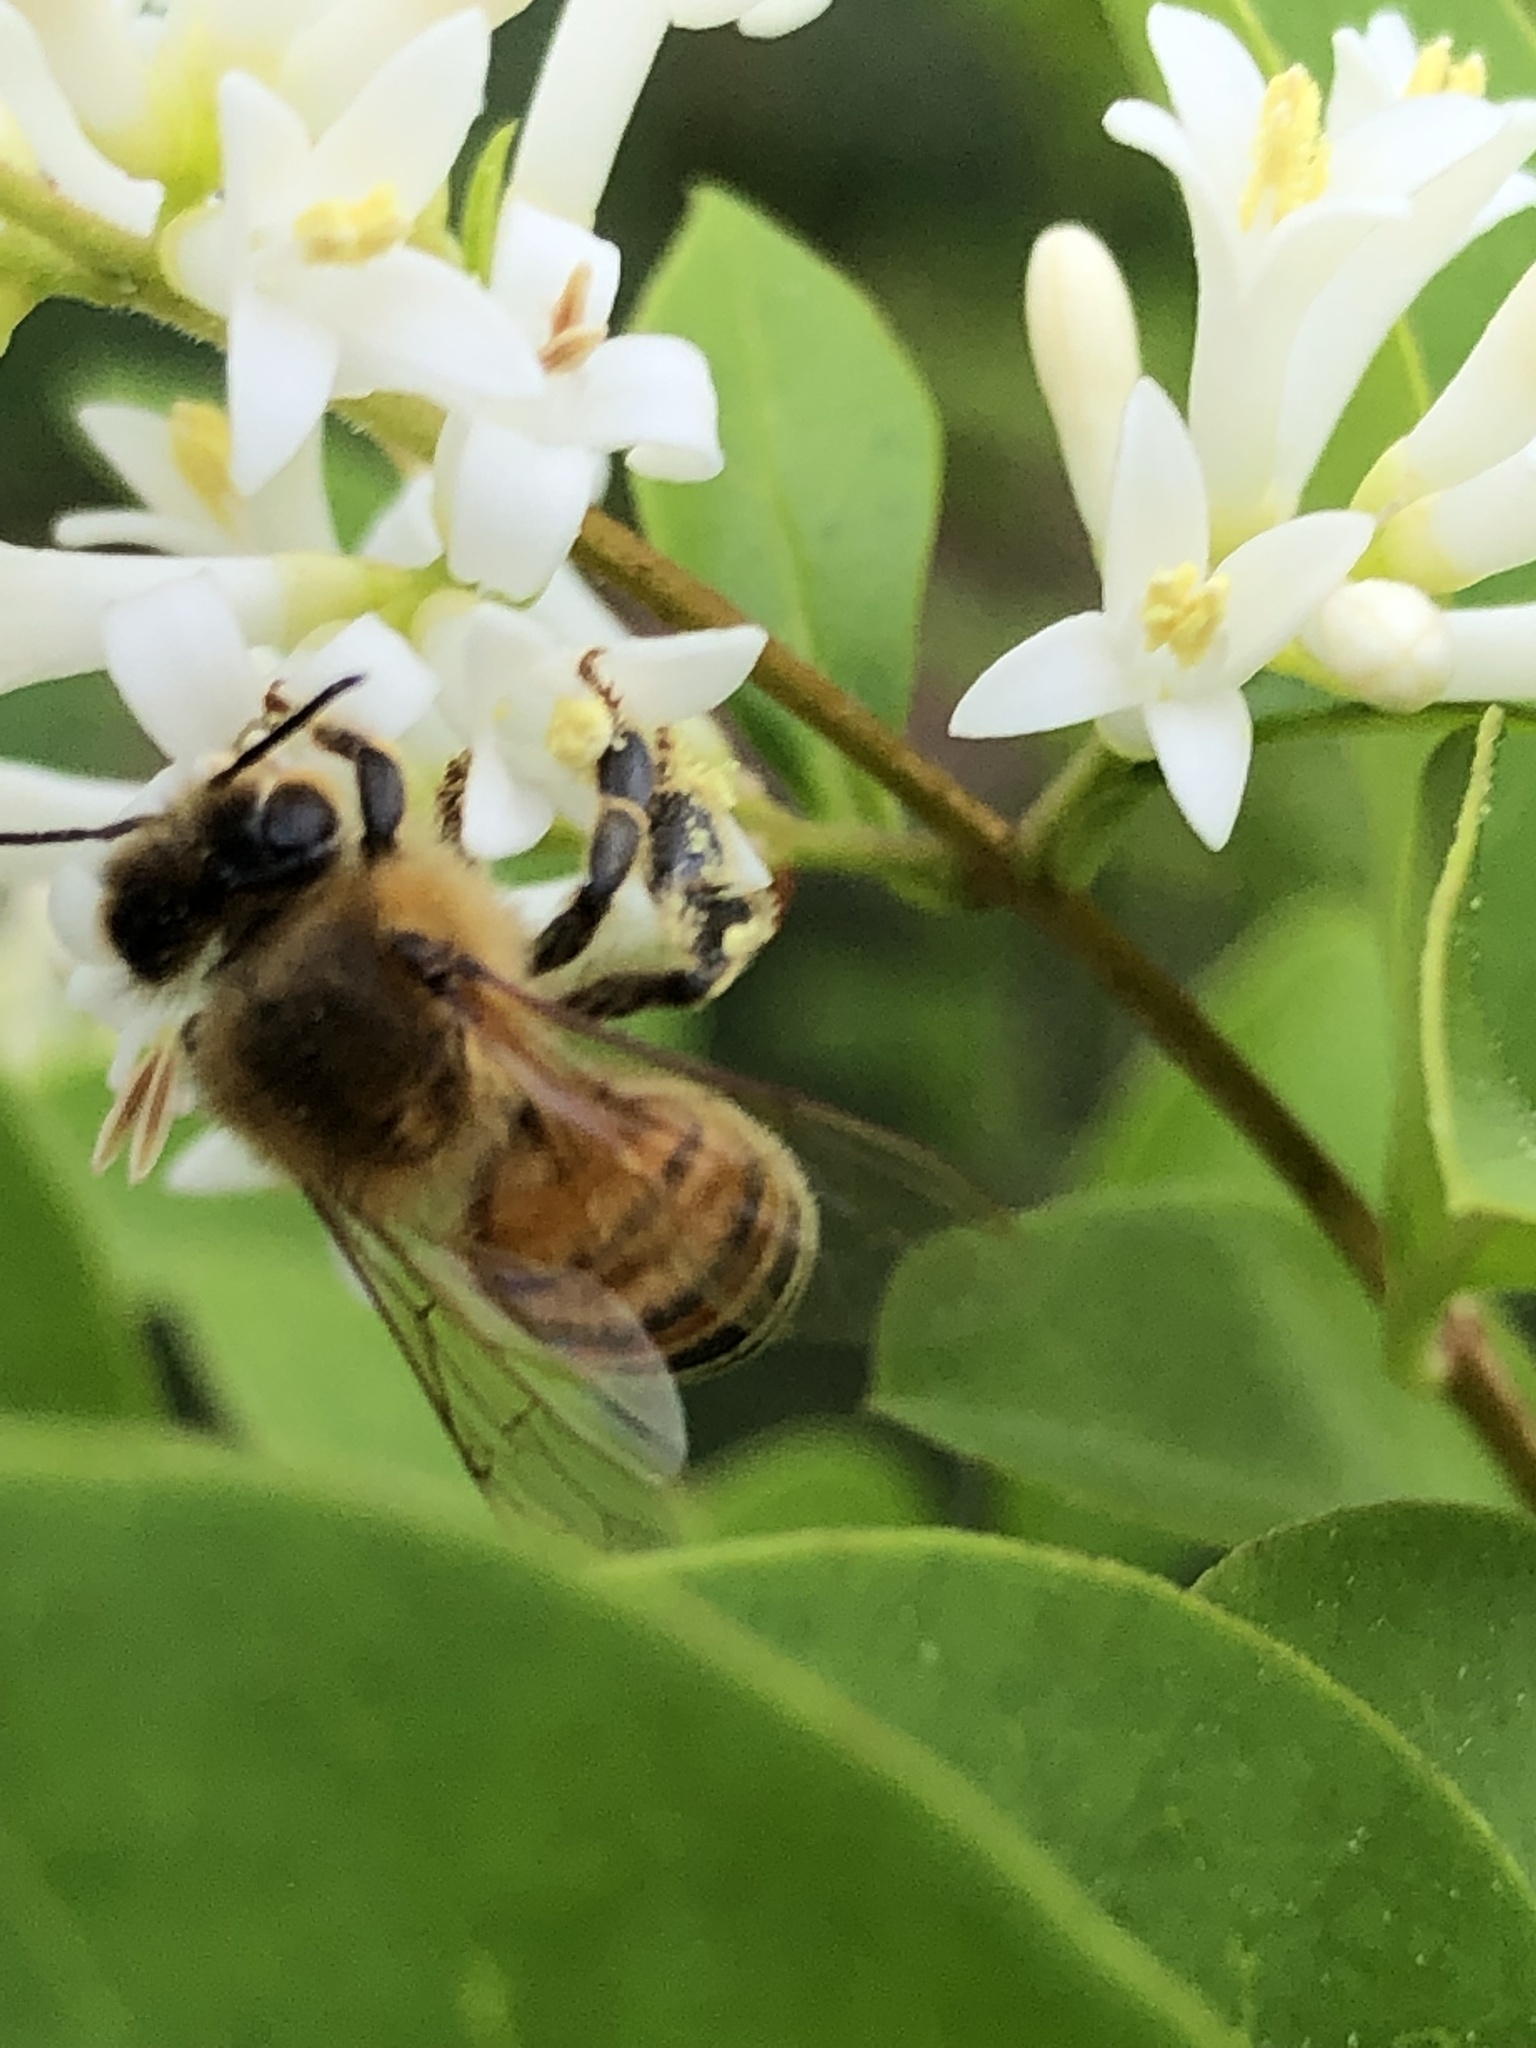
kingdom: Animalia
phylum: Arthropoda
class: Insecta
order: Hymenoptera
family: Apidae
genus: Apis
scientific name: Apis mellifera
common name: Honey bee
